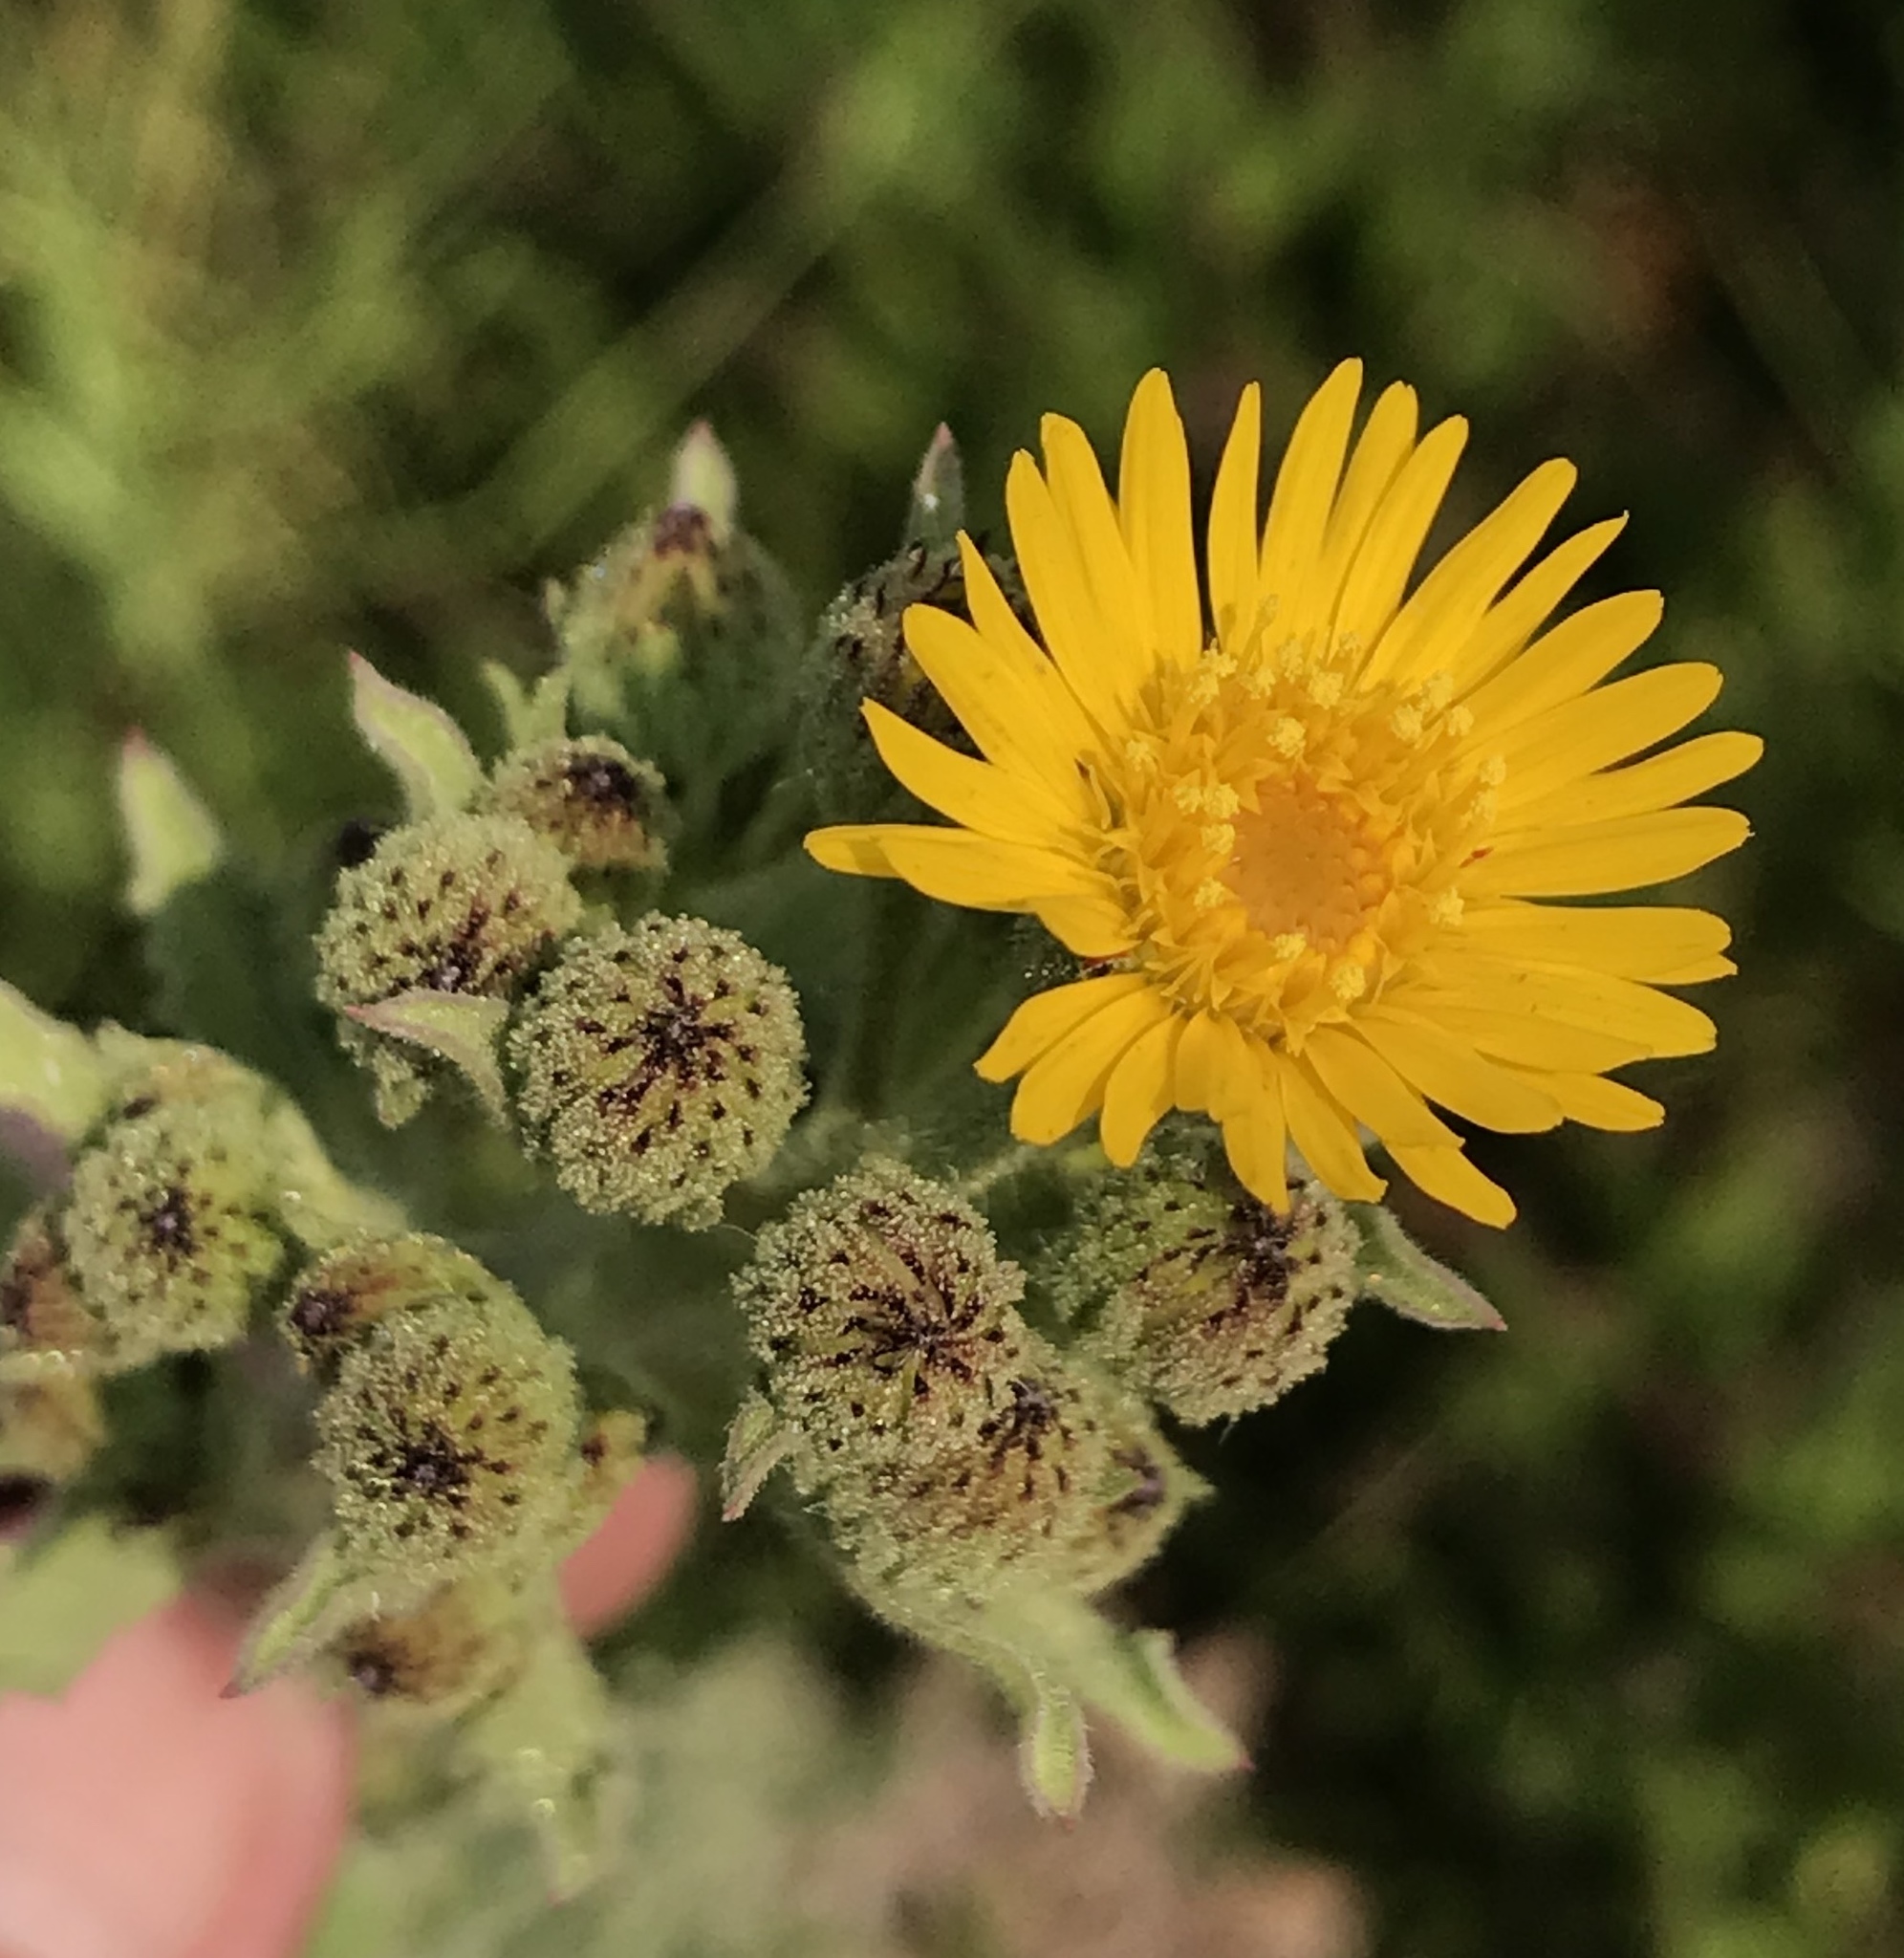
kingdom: Plantae
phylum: Tracheophyta
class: Magnoliopsida
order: Asterales
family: Asteraceae
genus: Heterotheca
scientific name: Heterotheca grandiflora
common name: Telegraphweed
